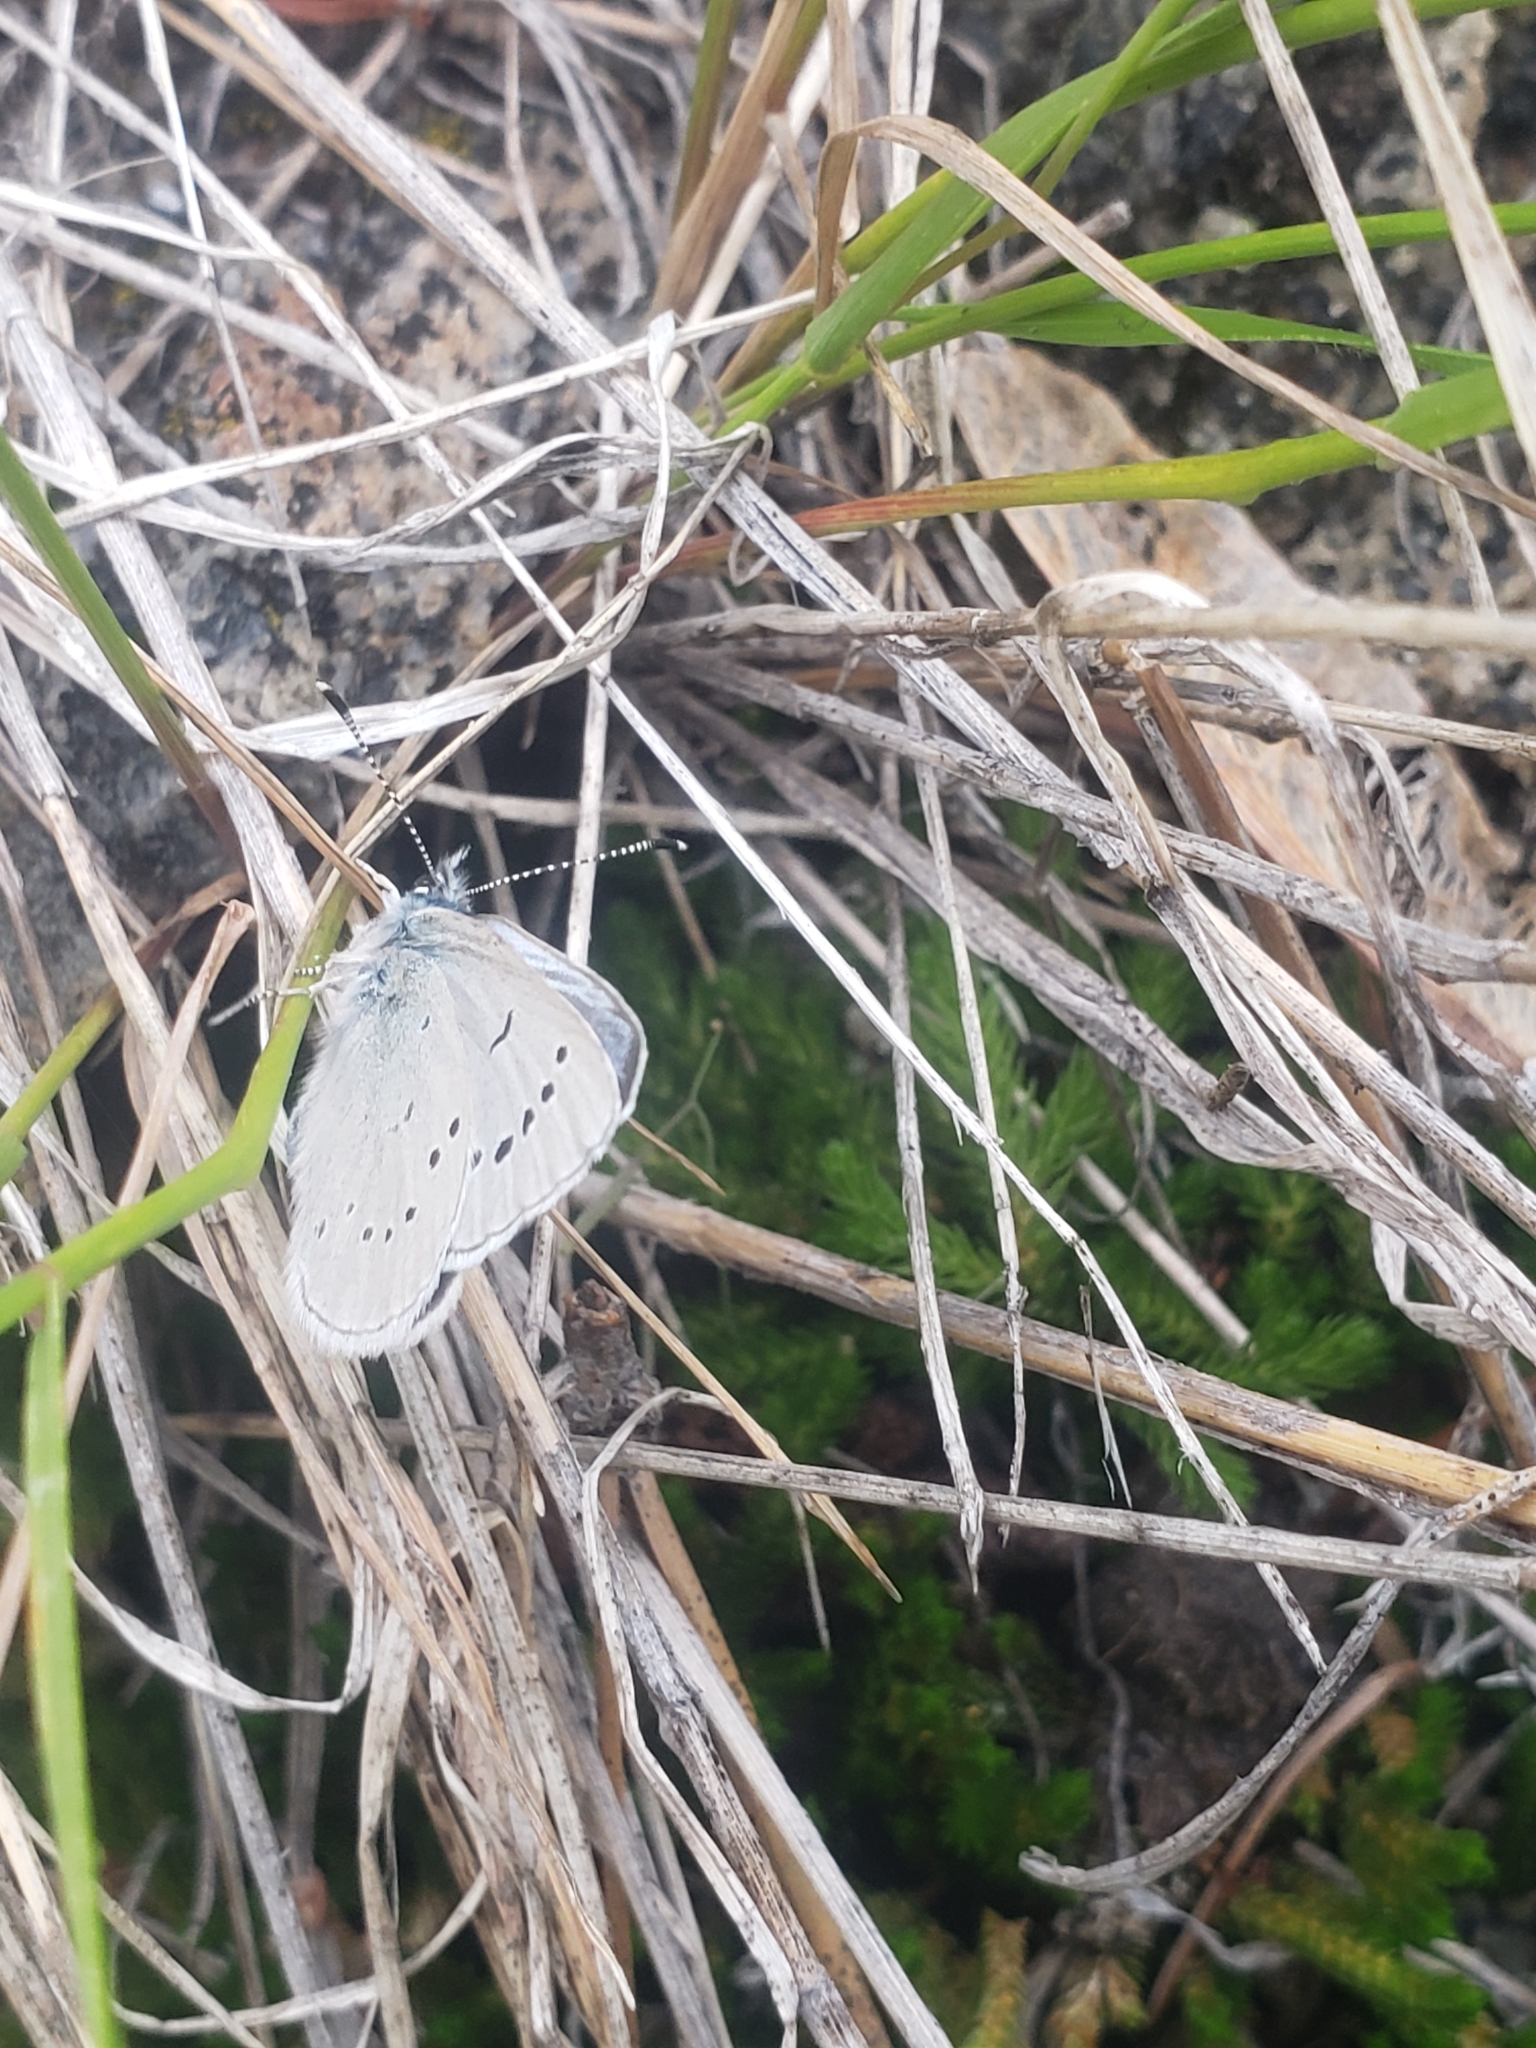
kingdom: Animalia
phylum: Arthropoda
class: Insecta
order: Lepidoptera
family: Lycaenidae
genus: Glaucopsyche
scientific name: Glaucopsyche lygdamus
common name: Silvery blue
